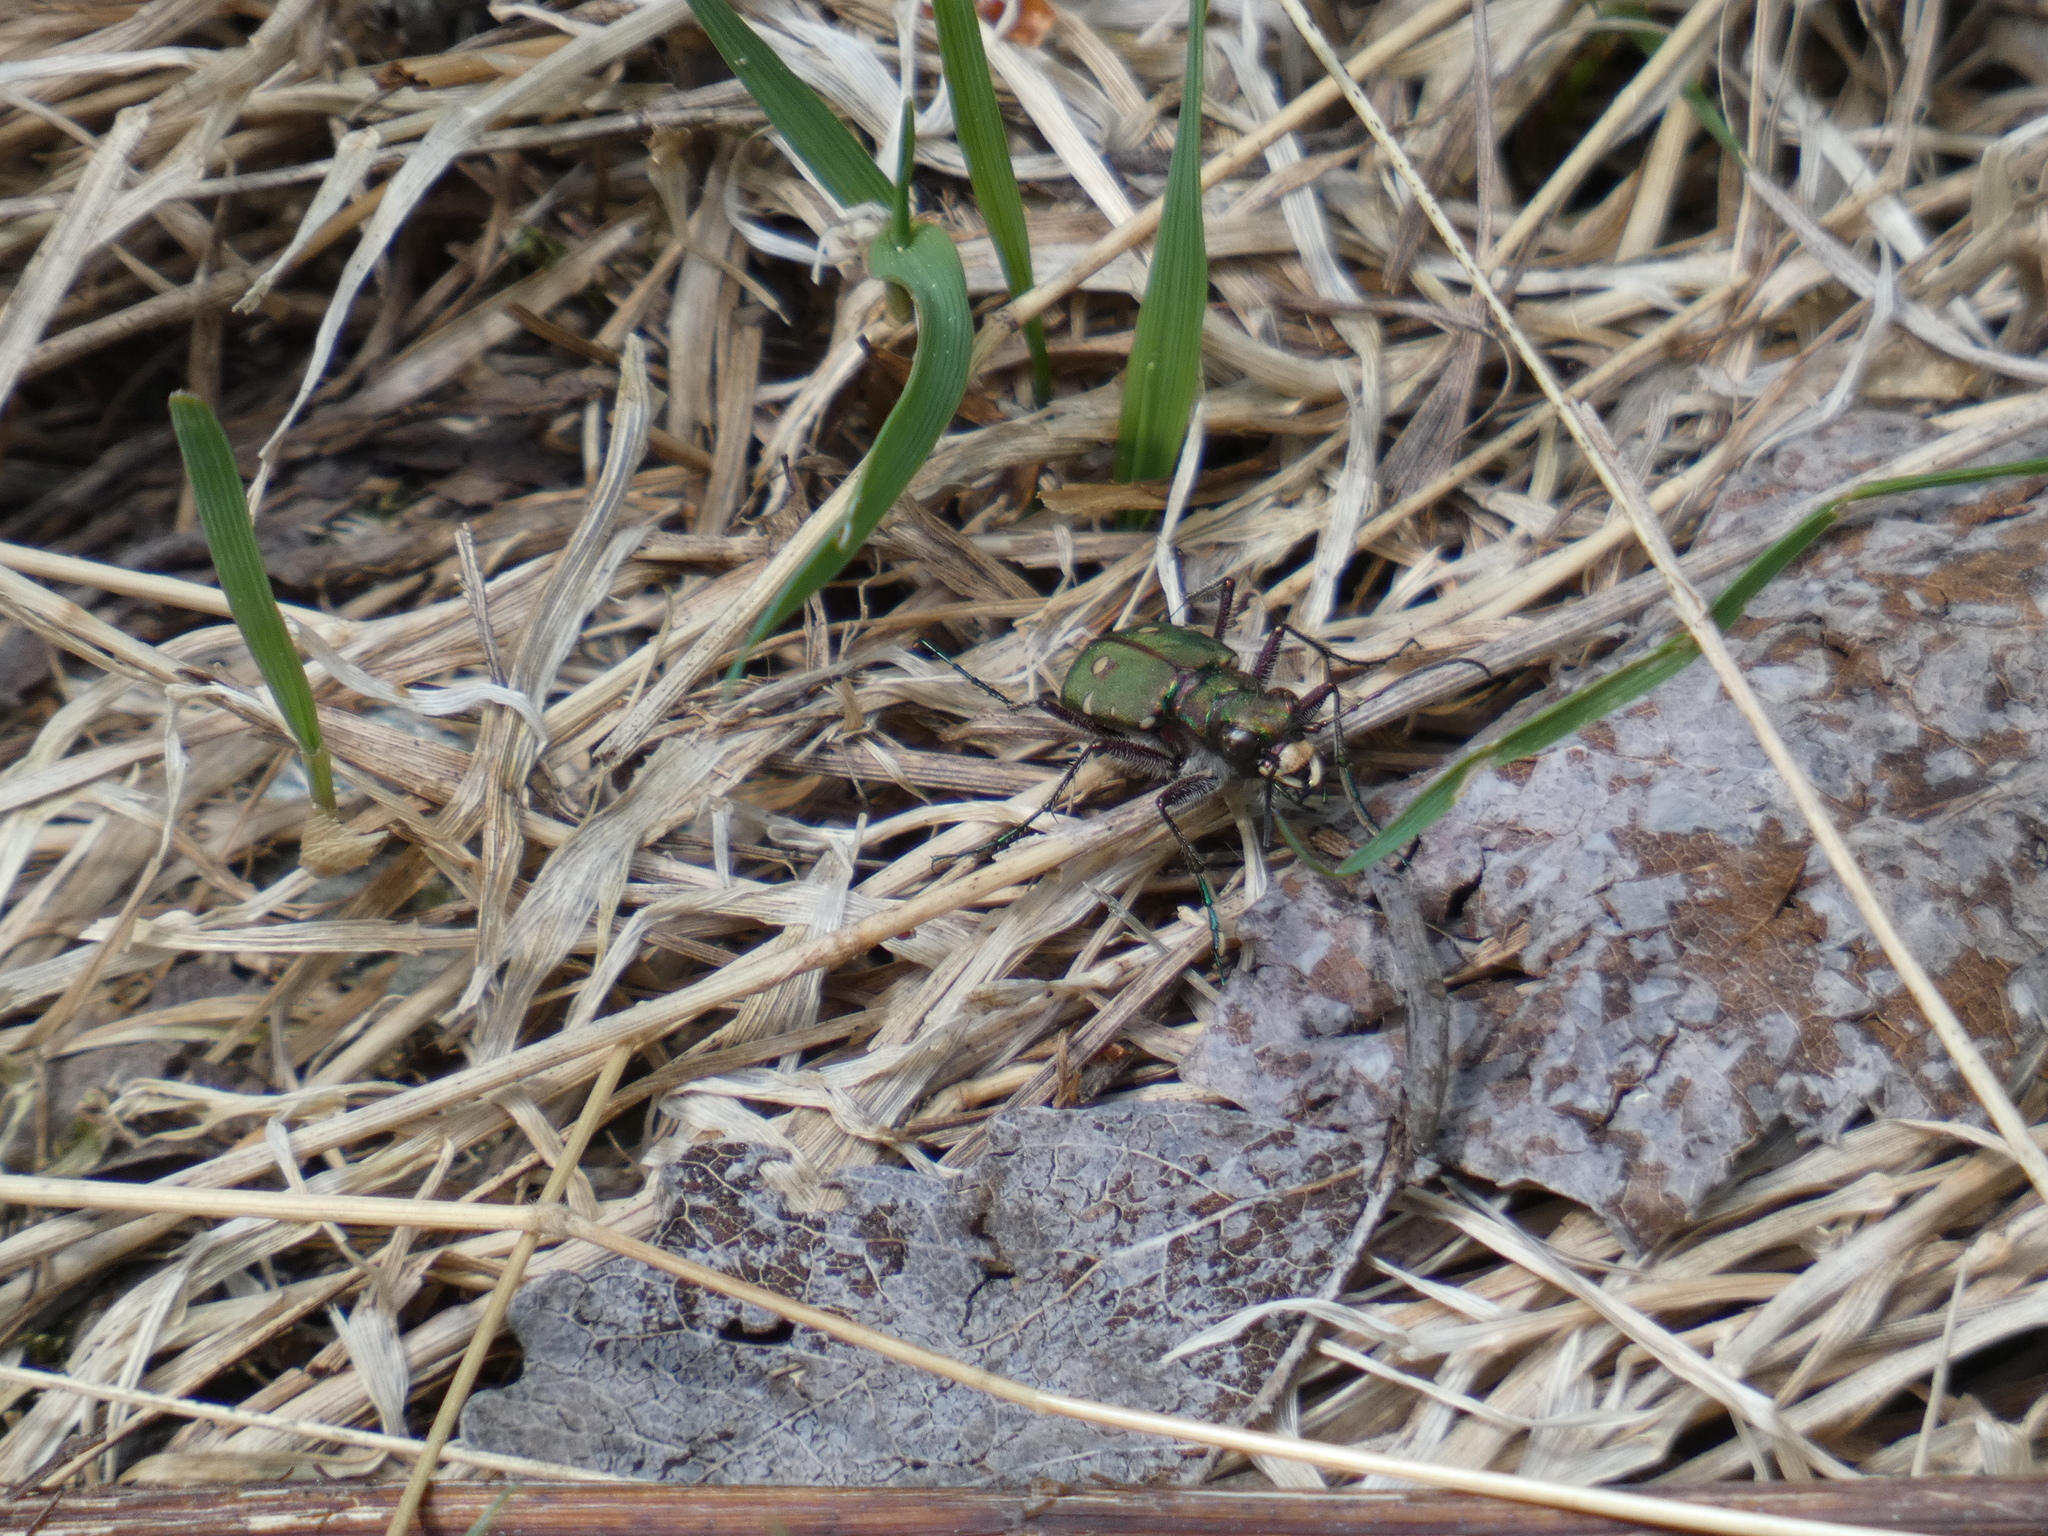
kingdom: Animalia
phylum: Arthropoda
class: Insecta
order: Coleoptera
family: Carabidae
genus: Cicindela
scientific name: Cicindela campestris
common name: Common tiger beetle
